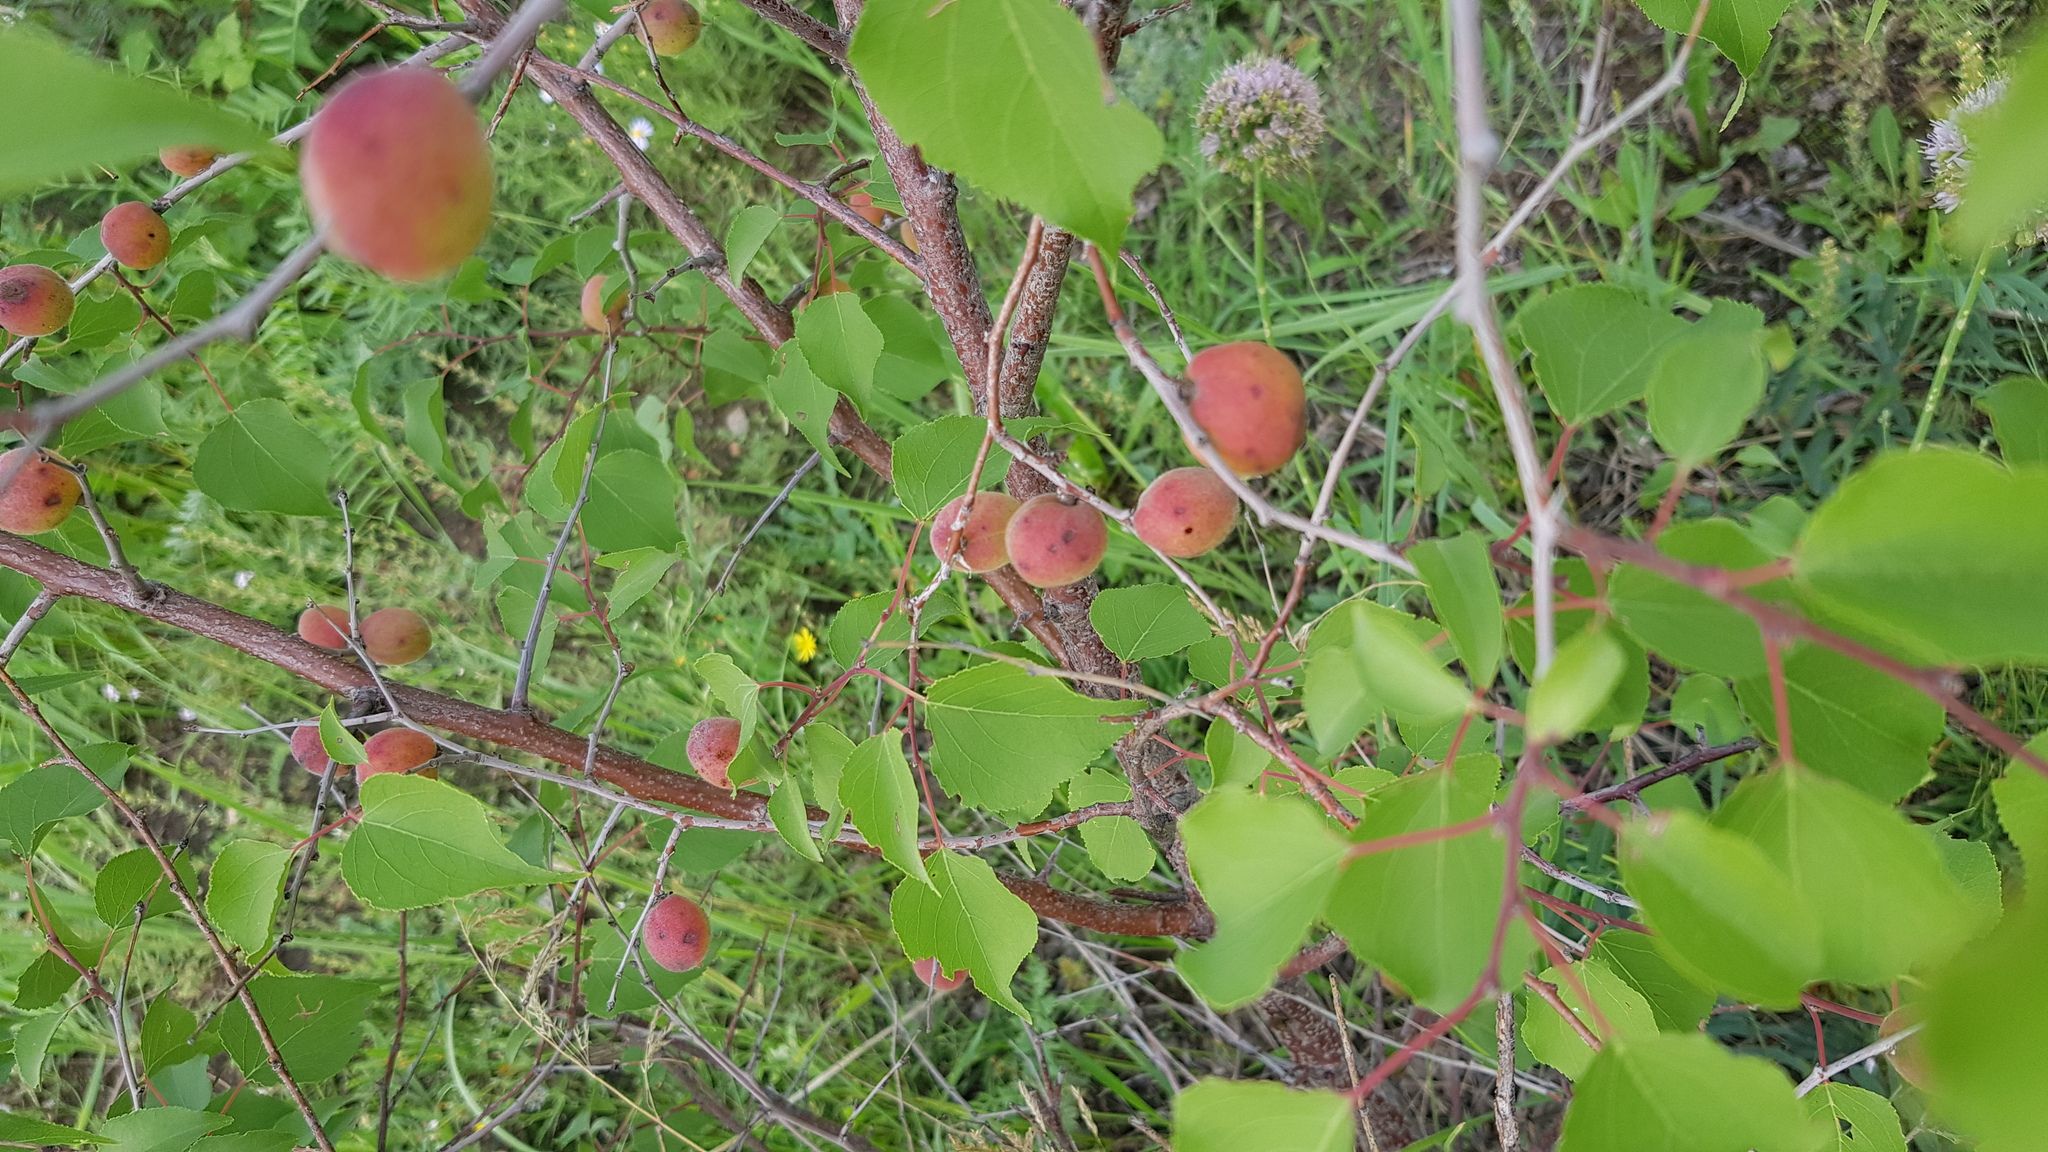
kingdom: Plantae
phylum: Tracheophyta
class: Magnoliopsida
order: Rosales
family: Rosaceae
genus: Prunus
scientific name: Prunus sibirica
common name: Siberian apricot
